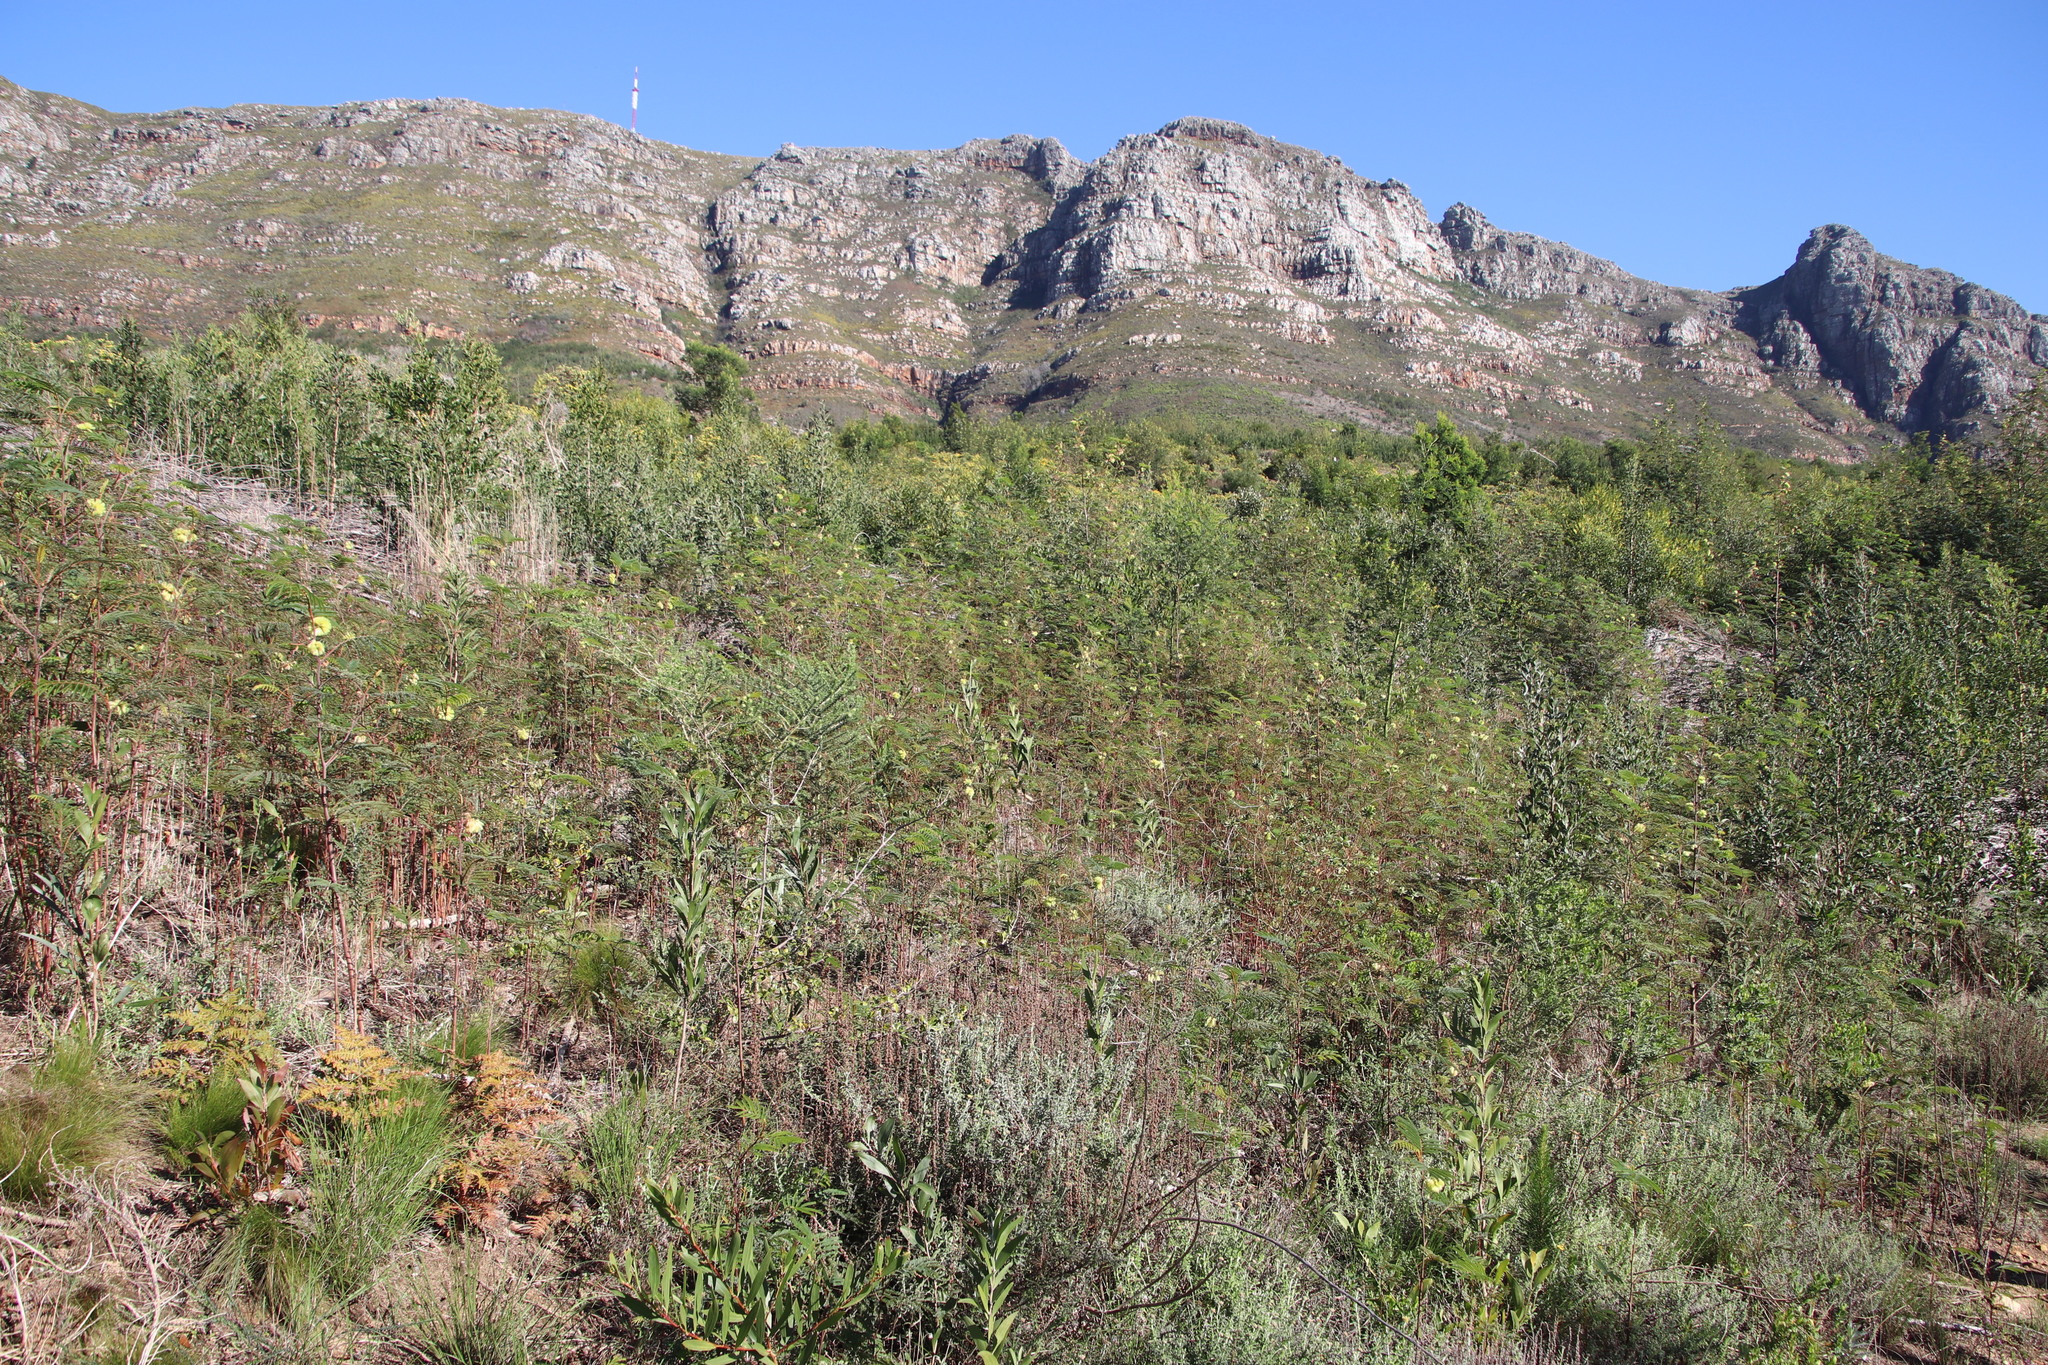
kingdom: Plantae
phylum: Tracheophyta
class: Magnoliopsida
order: Fabales
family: Fabaceae
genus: Paraserianthes
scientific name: Paraserianthes lophantha
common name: Plume albizia
